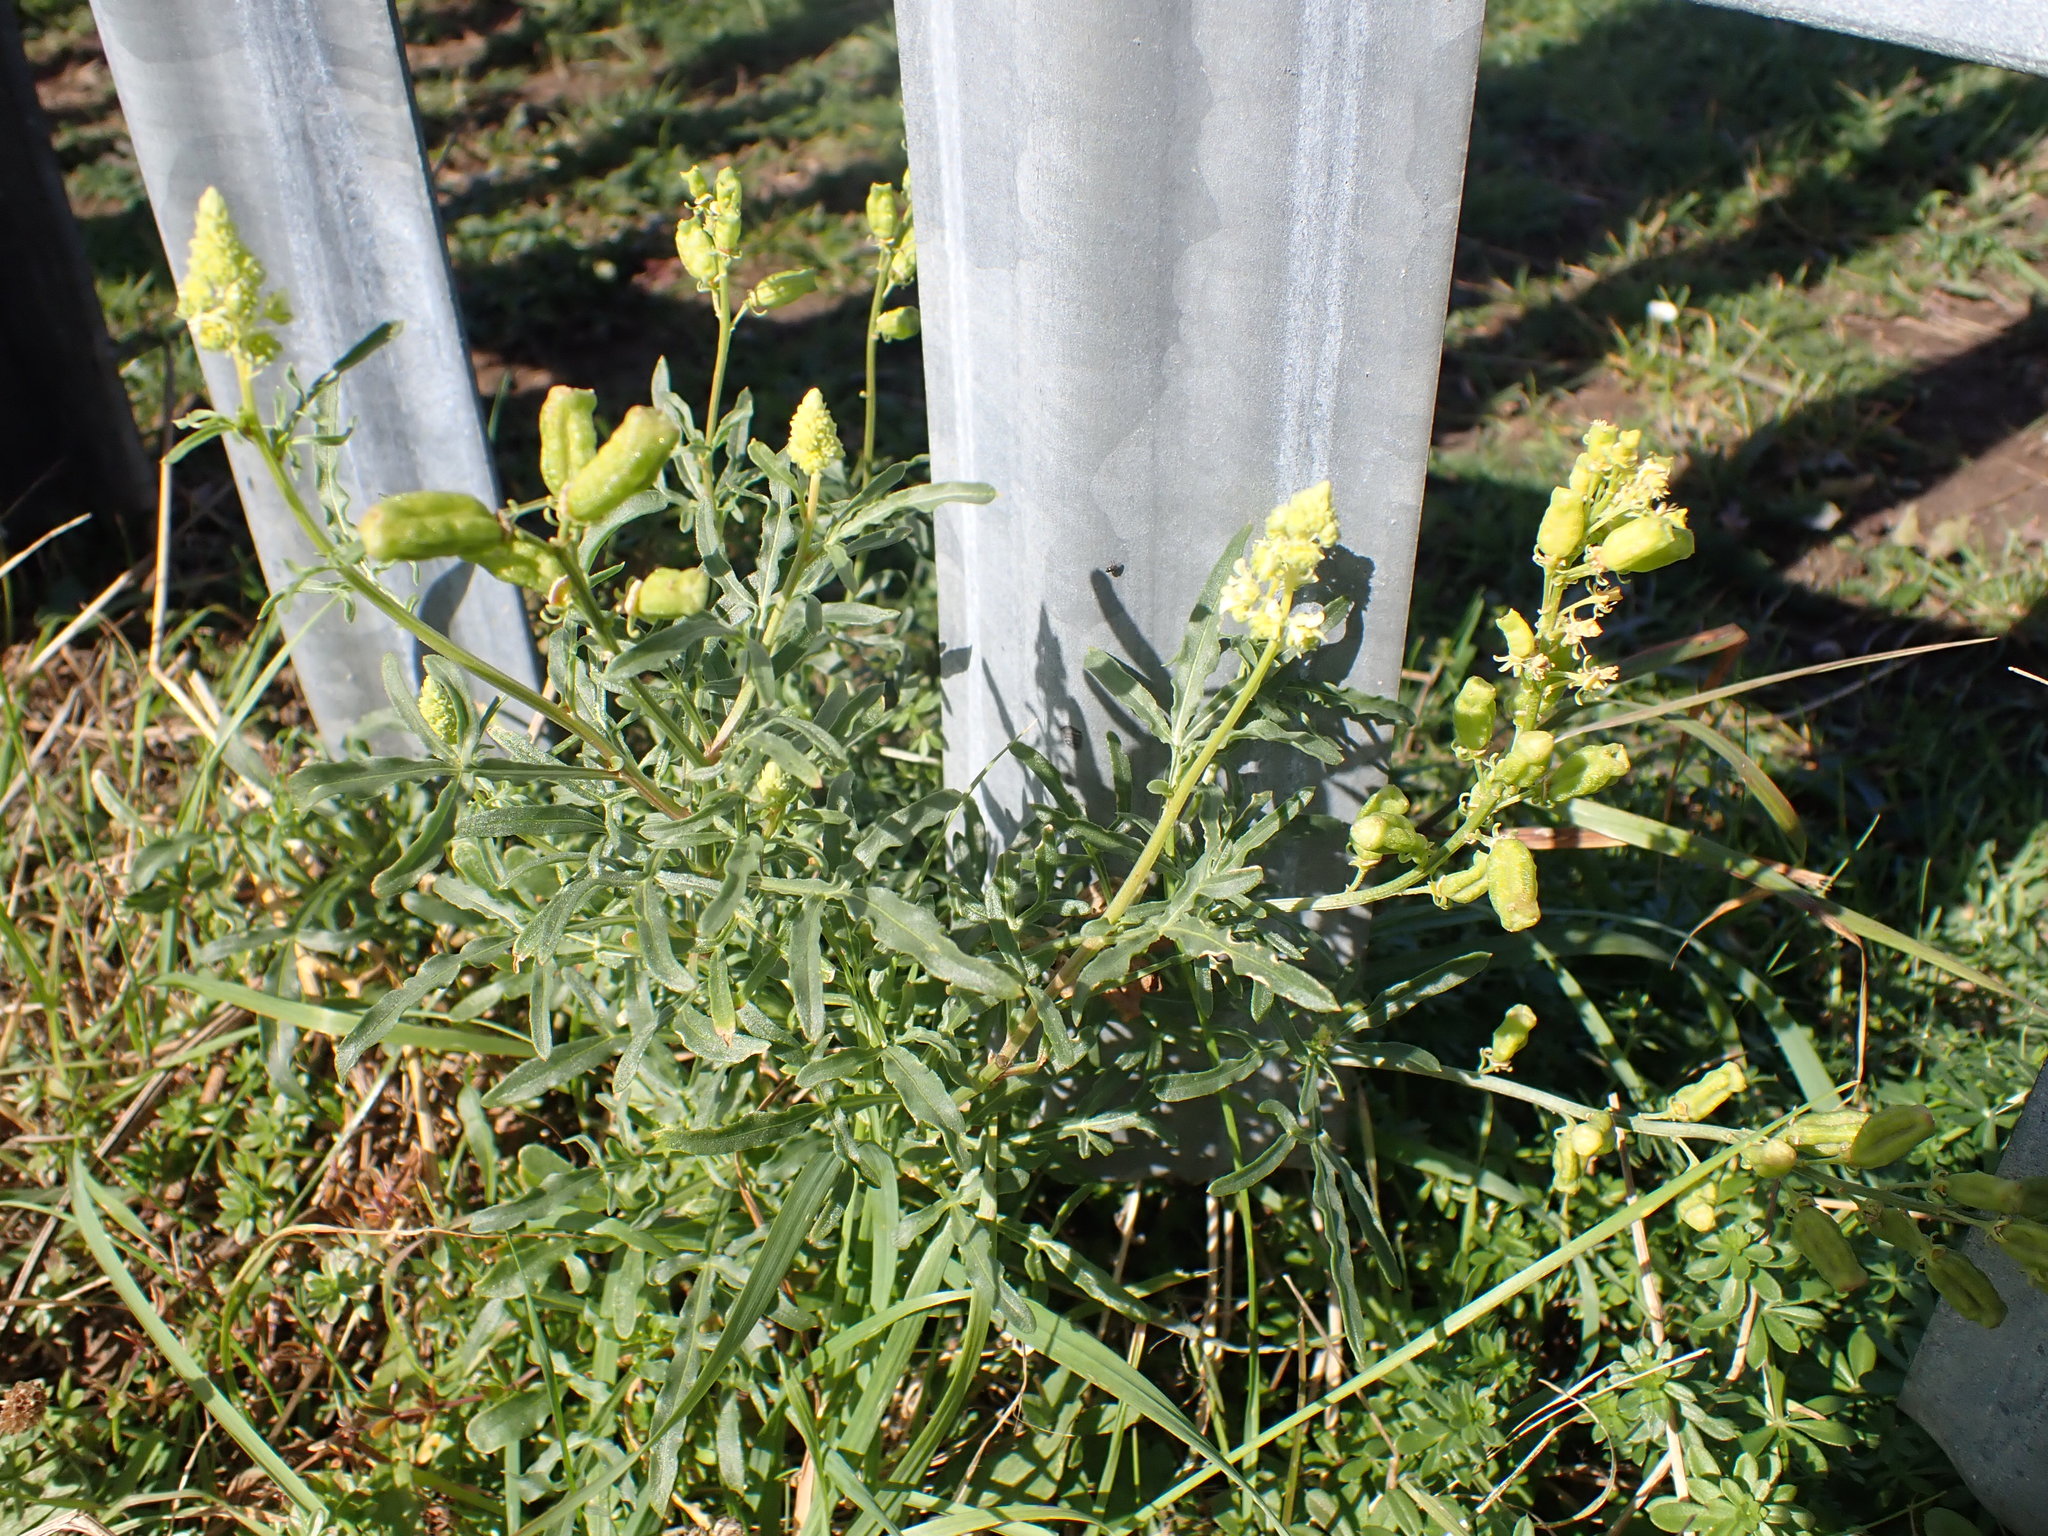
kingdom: Plantae
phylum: Tracheophyta
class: Magnoliopsida
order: Brassicales
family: Resedaceae
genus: Reseda
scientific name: Reseda lutea
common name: Wild mignonette
